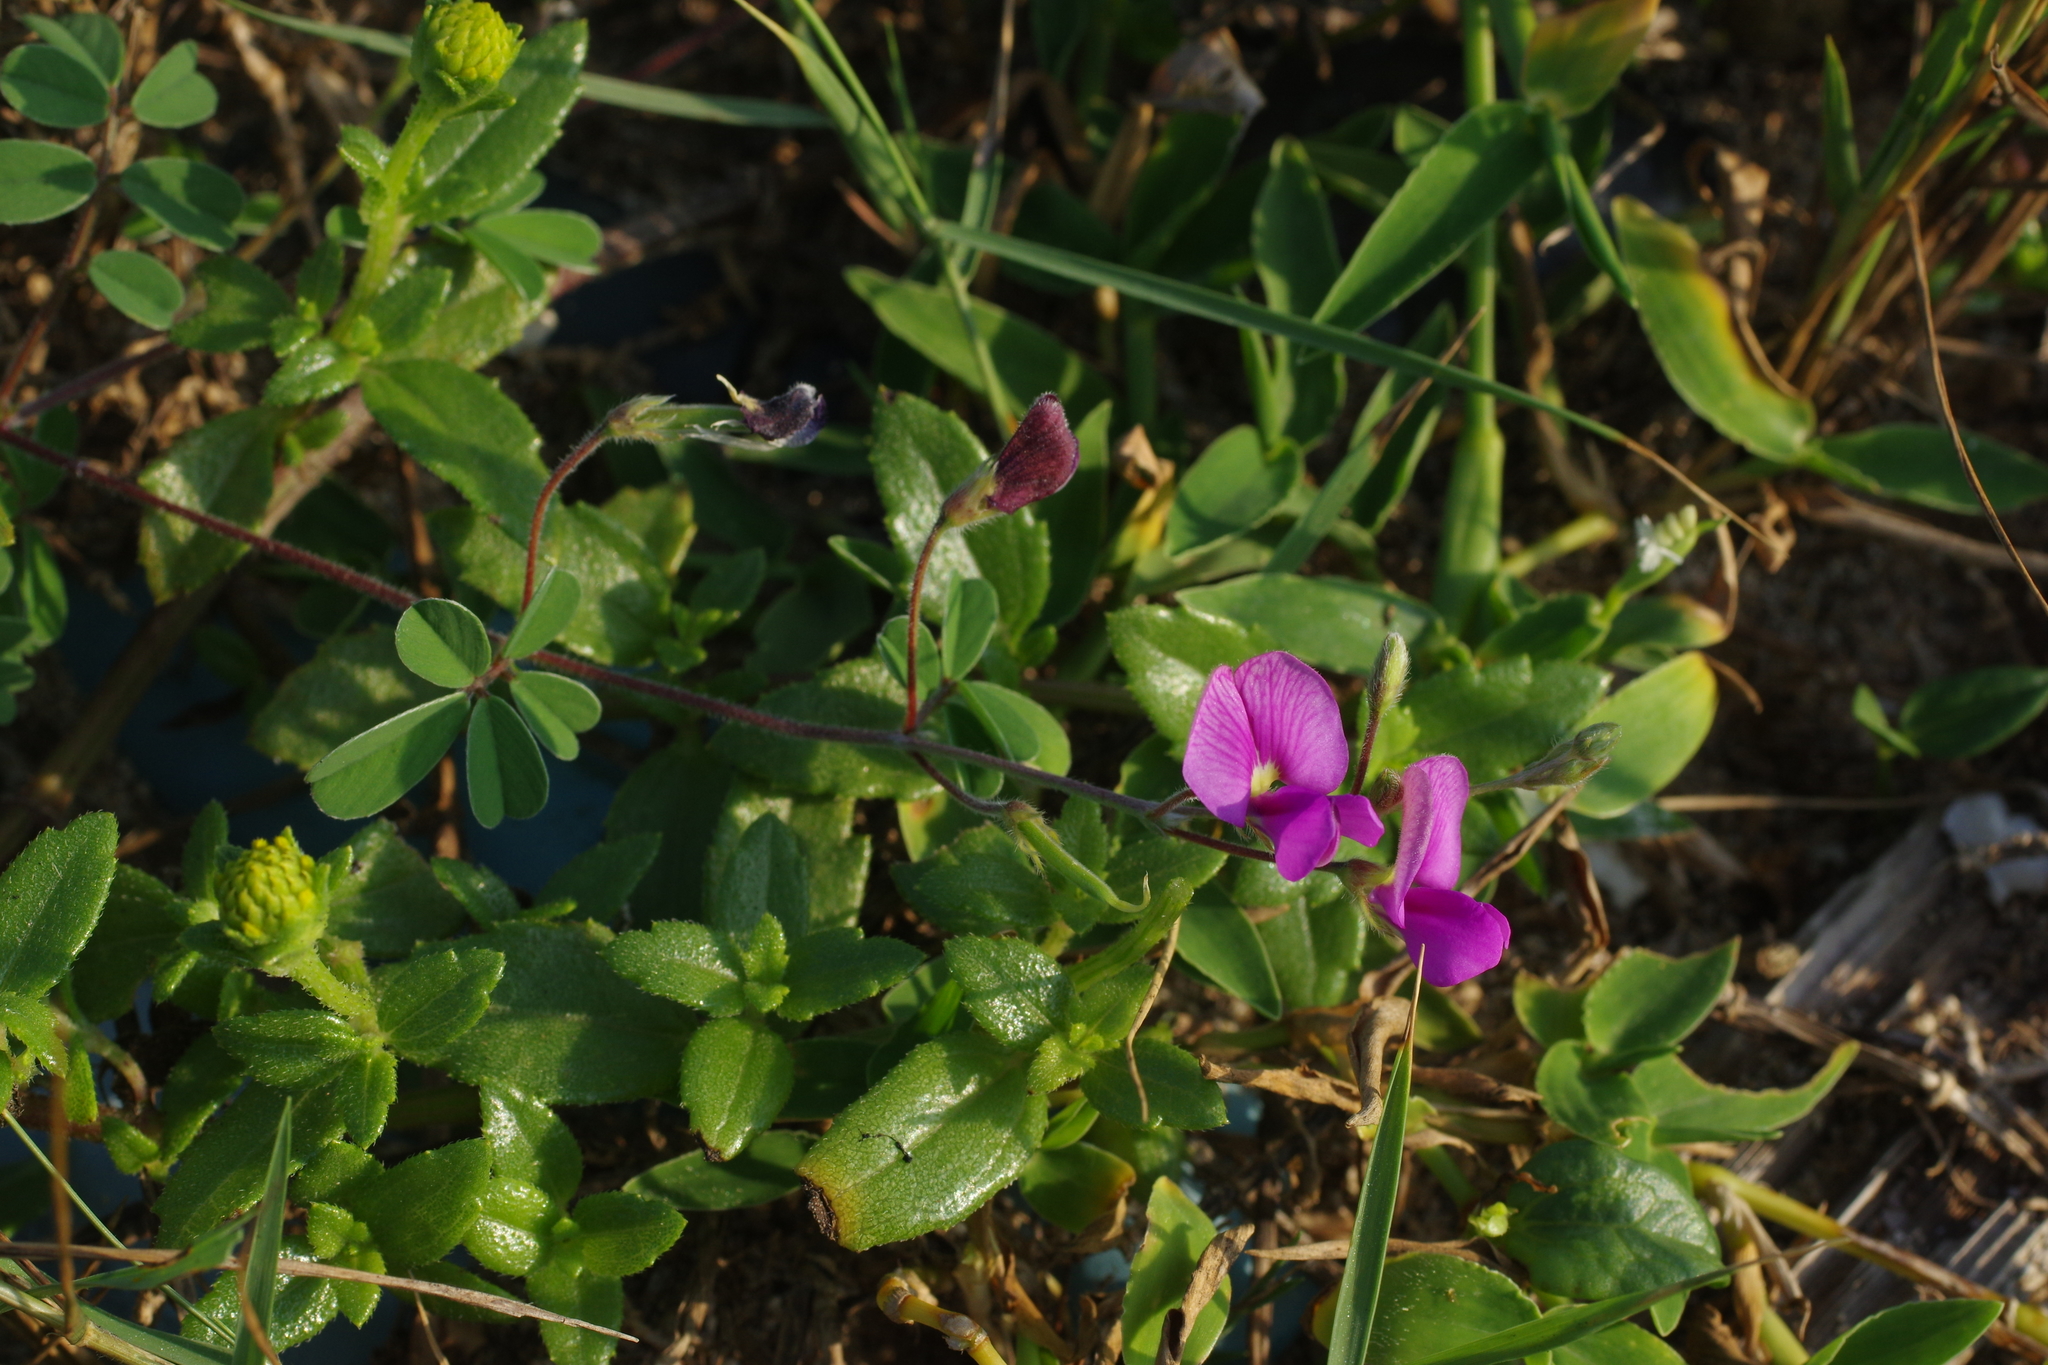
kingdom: Plantae
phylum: Tracheophyta
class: Magnoliopsida
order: Fabales
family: Fabaceae
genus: Tephrosia
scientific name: Tephrosia obovata
